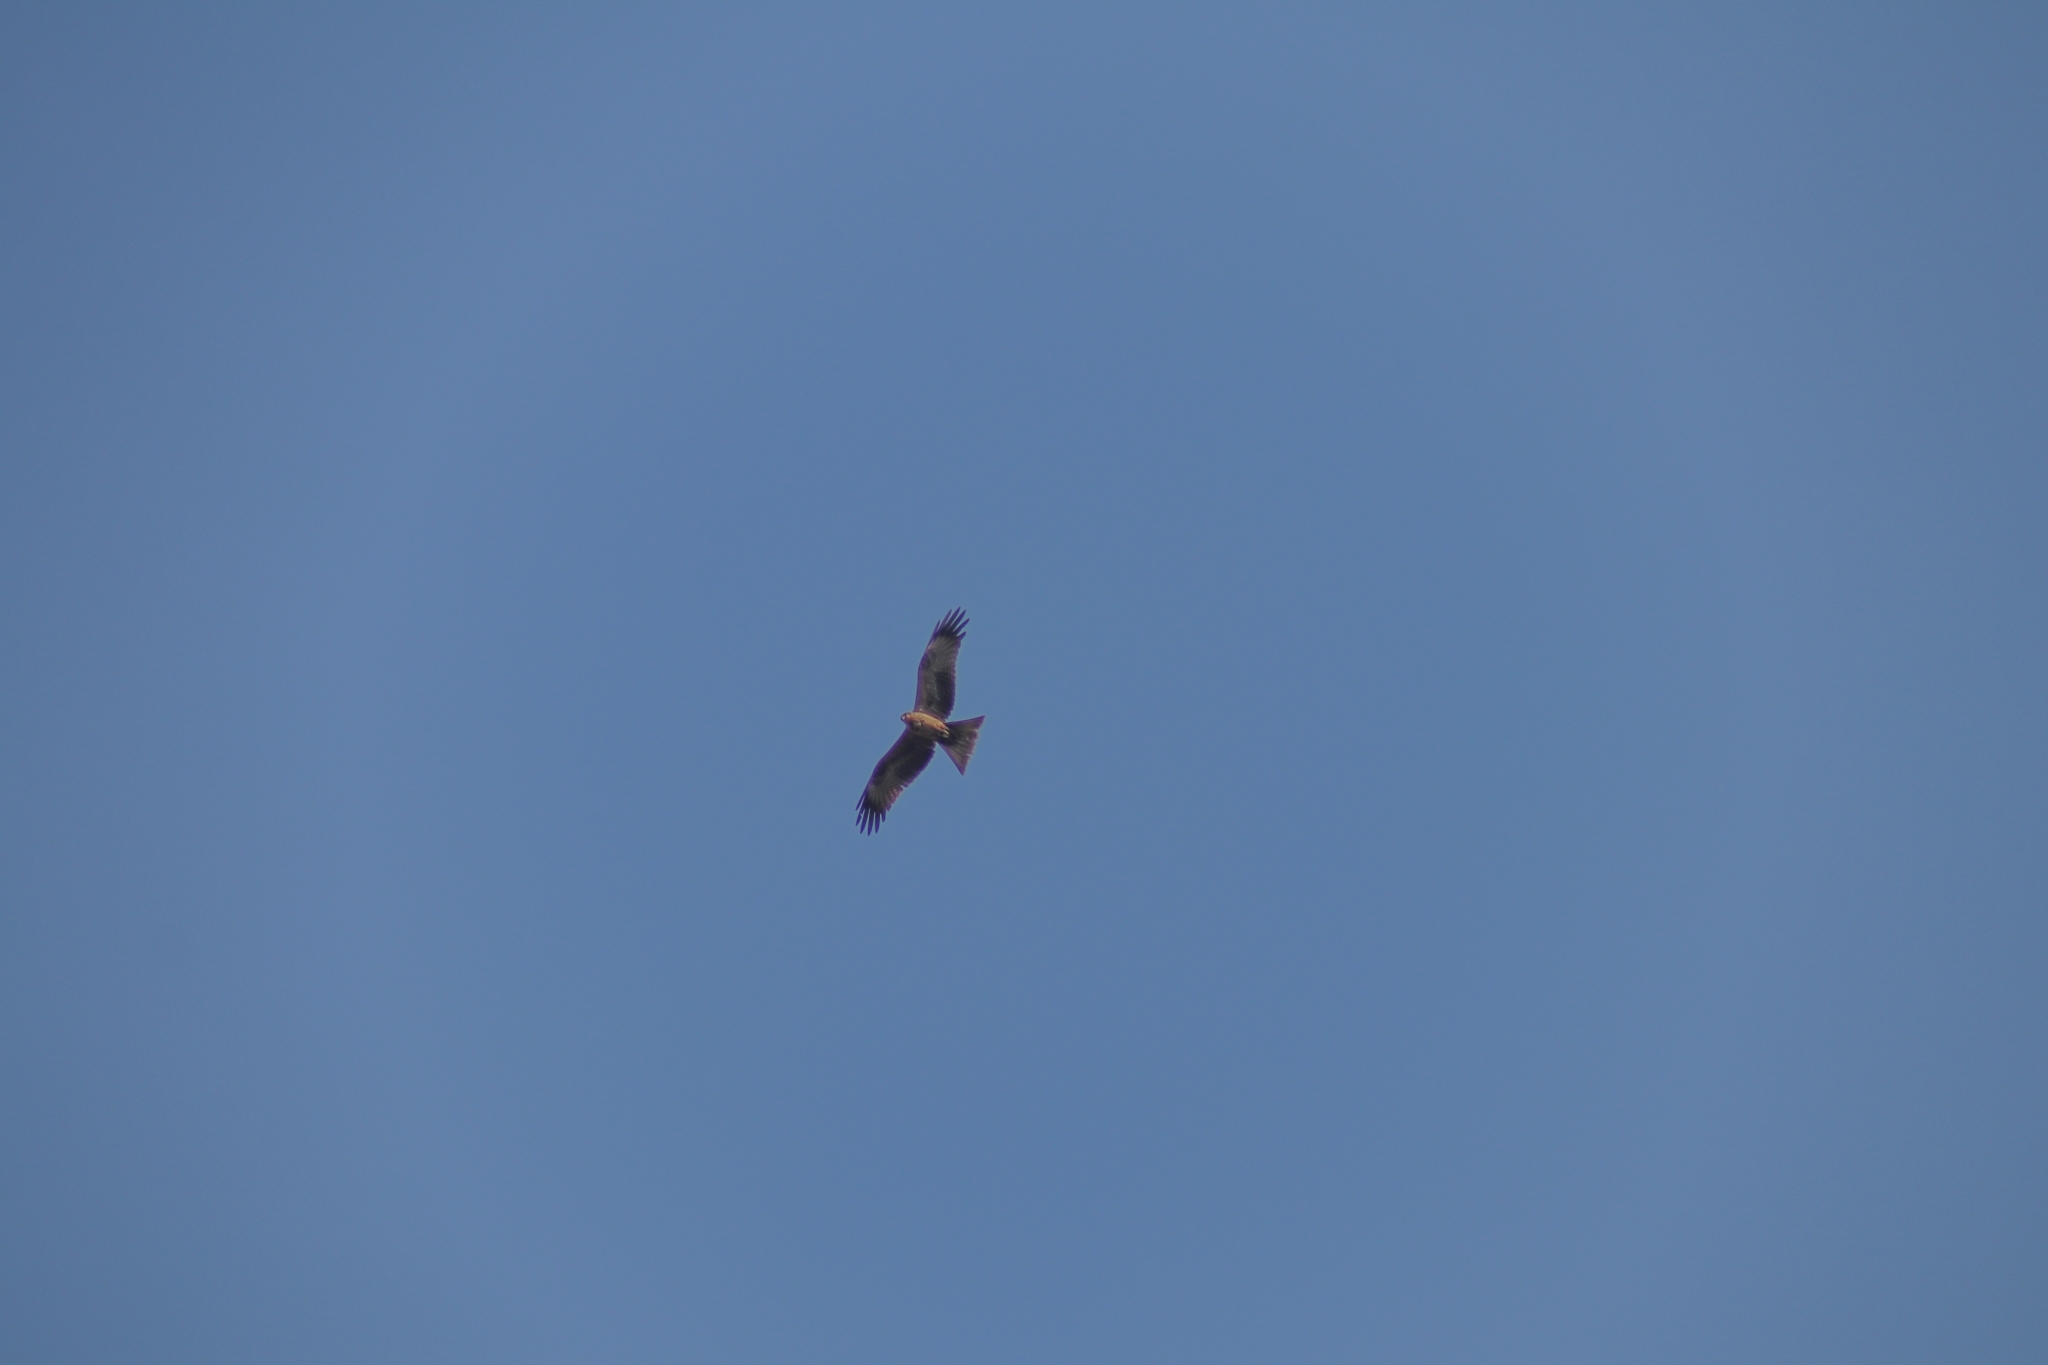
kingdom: Animalia
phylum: Chordata
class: Aves
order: Accipitriformes
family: Accipitridae
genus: Milvus
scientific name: Milvus migrans
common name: Black kite
